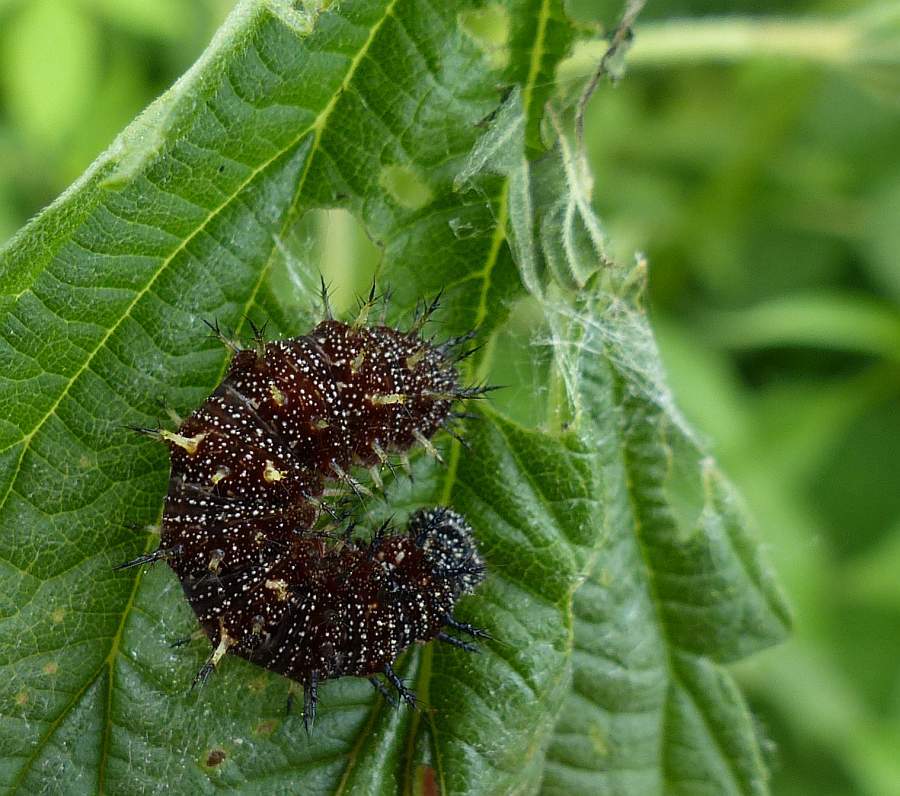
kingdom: Animalia
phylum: Arthropoda
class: Insecta
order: Lepidoptera
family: Nymphalidae
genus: Vanessa
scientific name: Vanessa atalanta
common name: Red admiral
